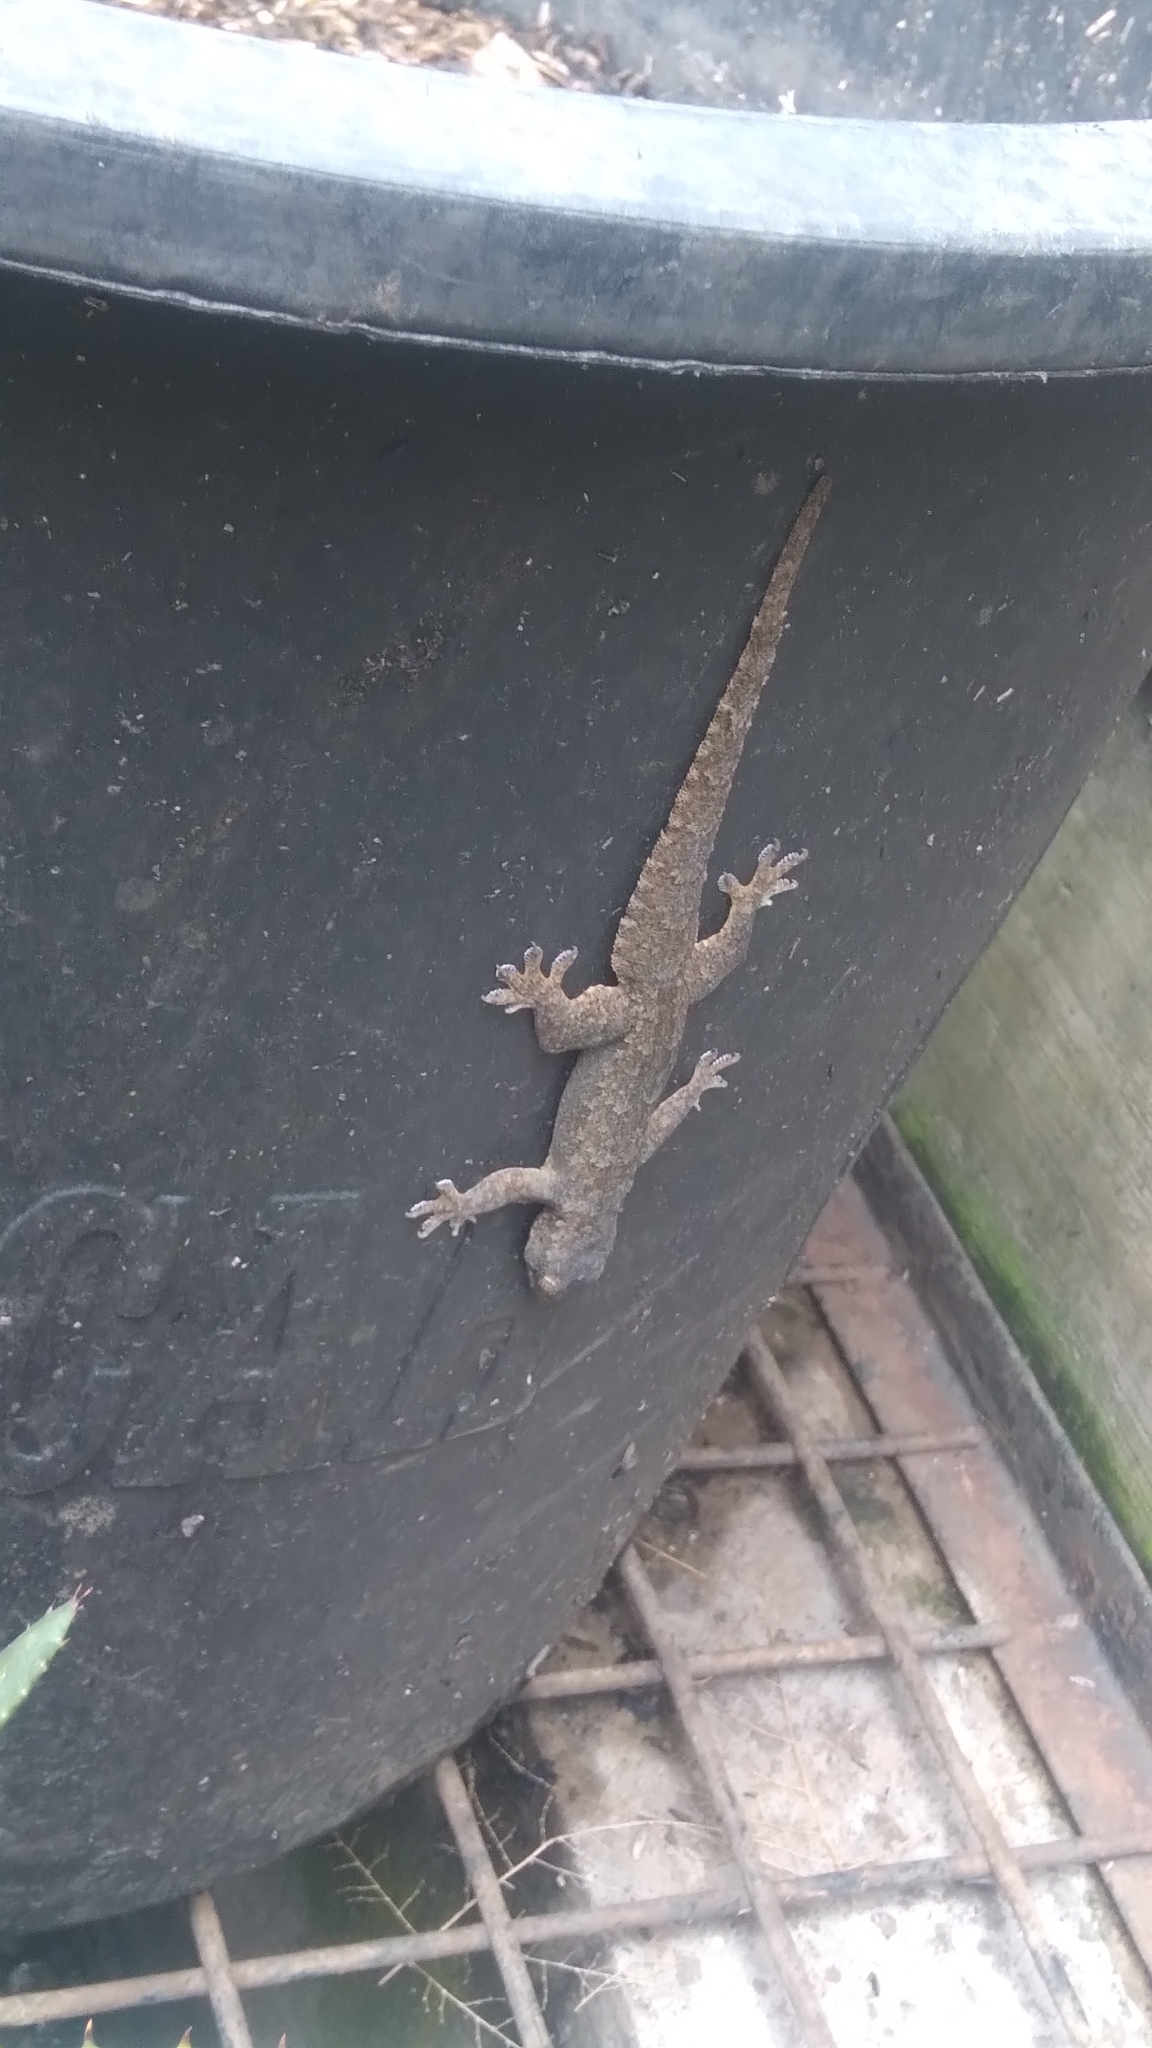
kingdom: Animalia
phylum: Chordata
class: Squamata
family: Gekkonidae
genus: Hemidactylus
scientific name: Hemidactylus platyurus
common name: Flat-tailed house gecko
